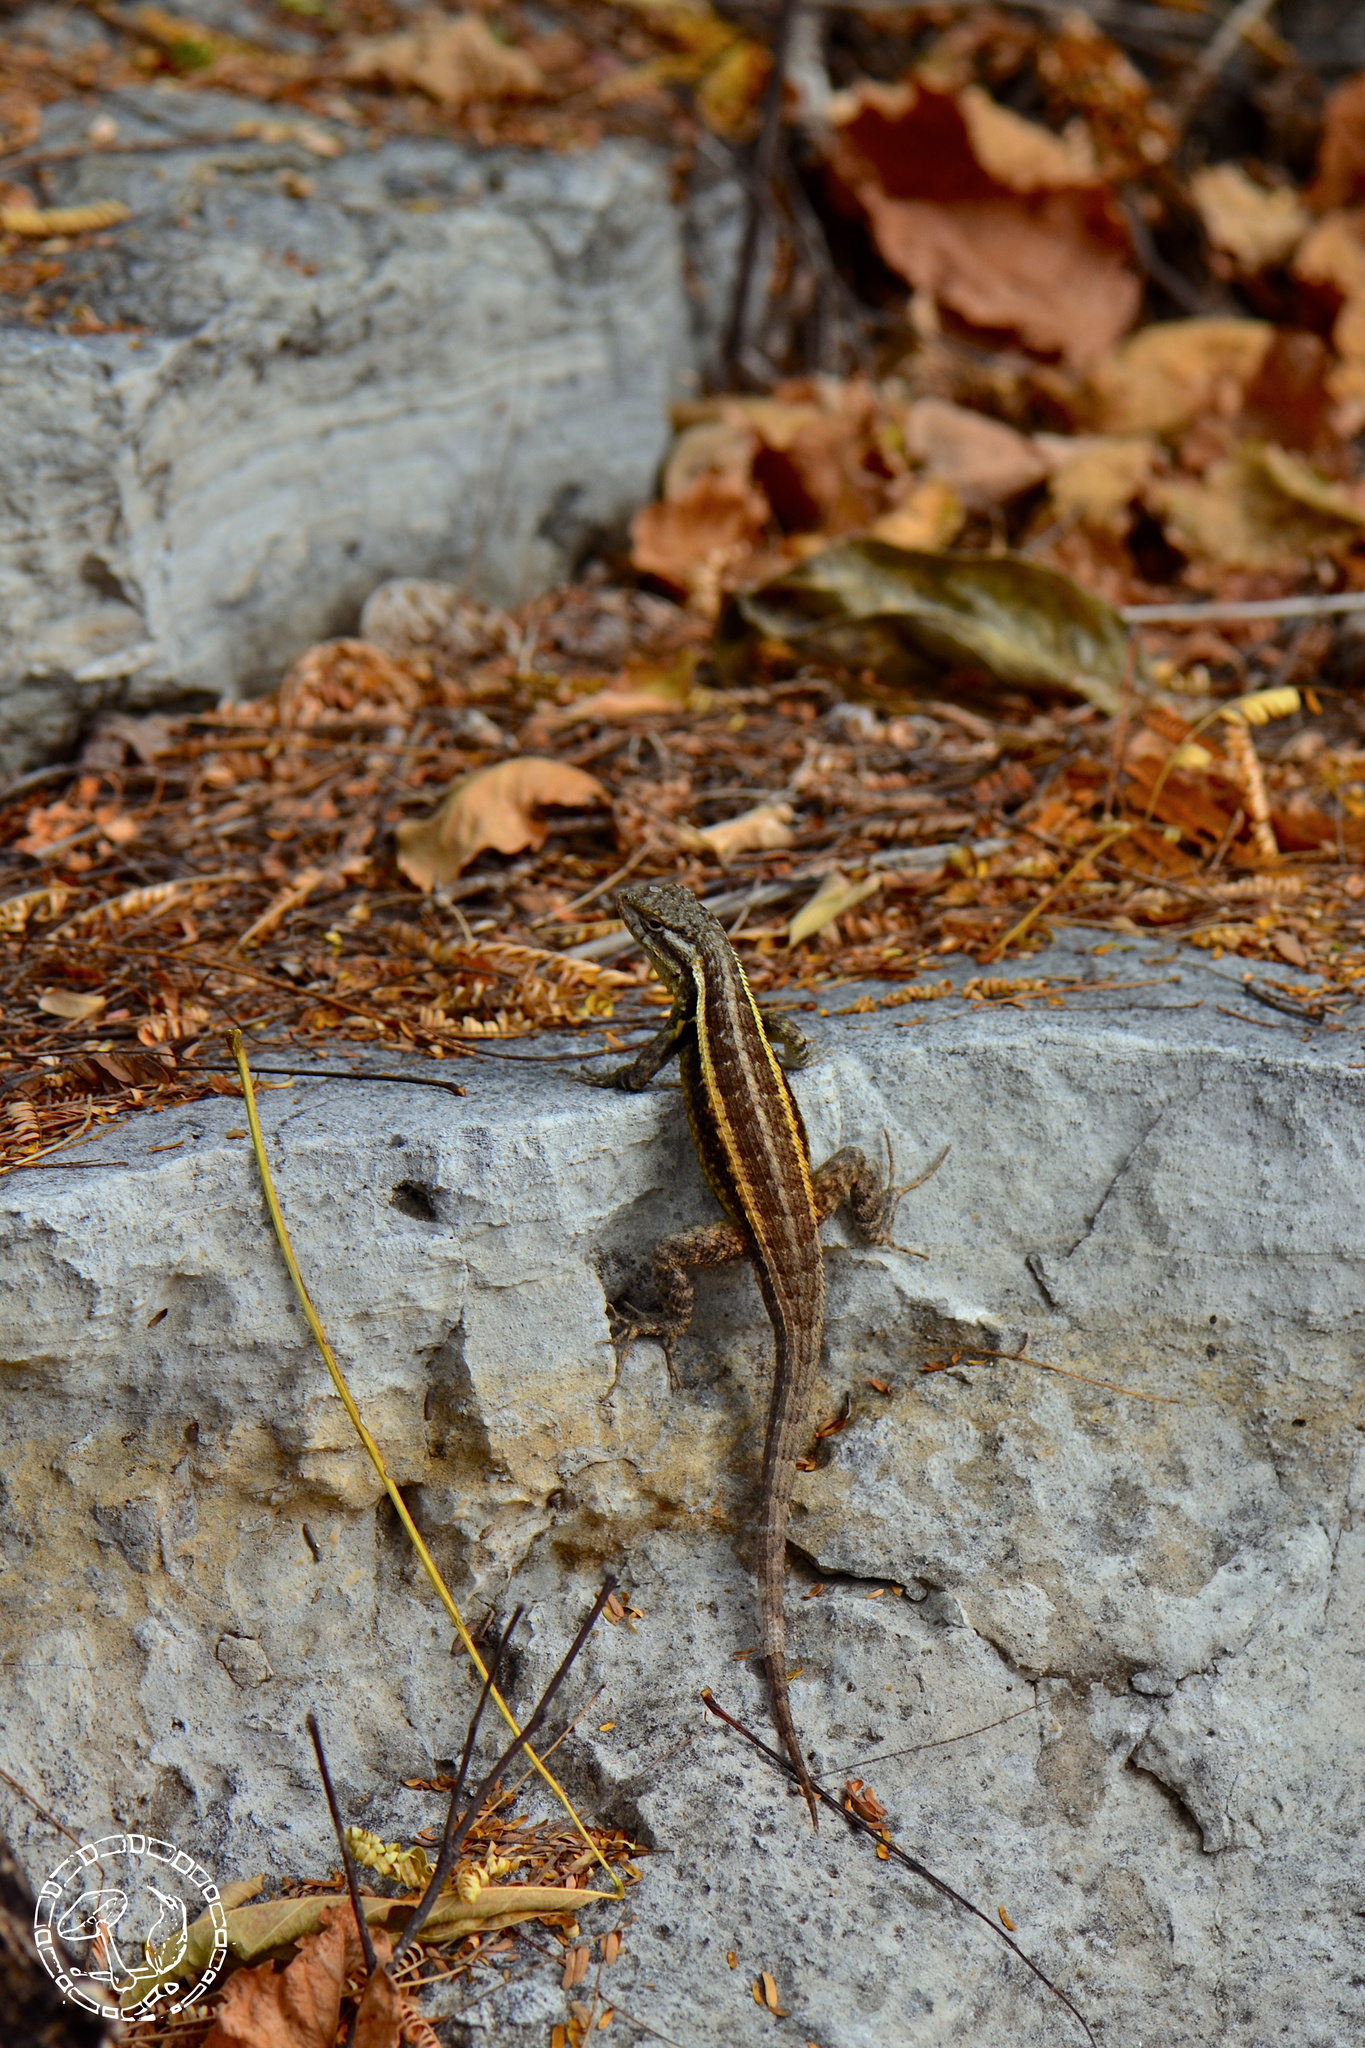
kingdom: Animalia
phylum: Chordata
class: Squamata
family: Phrynosomatidae
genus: Sceloporus
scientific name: Sceloporus variabilis
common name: Rosebelly lizard
